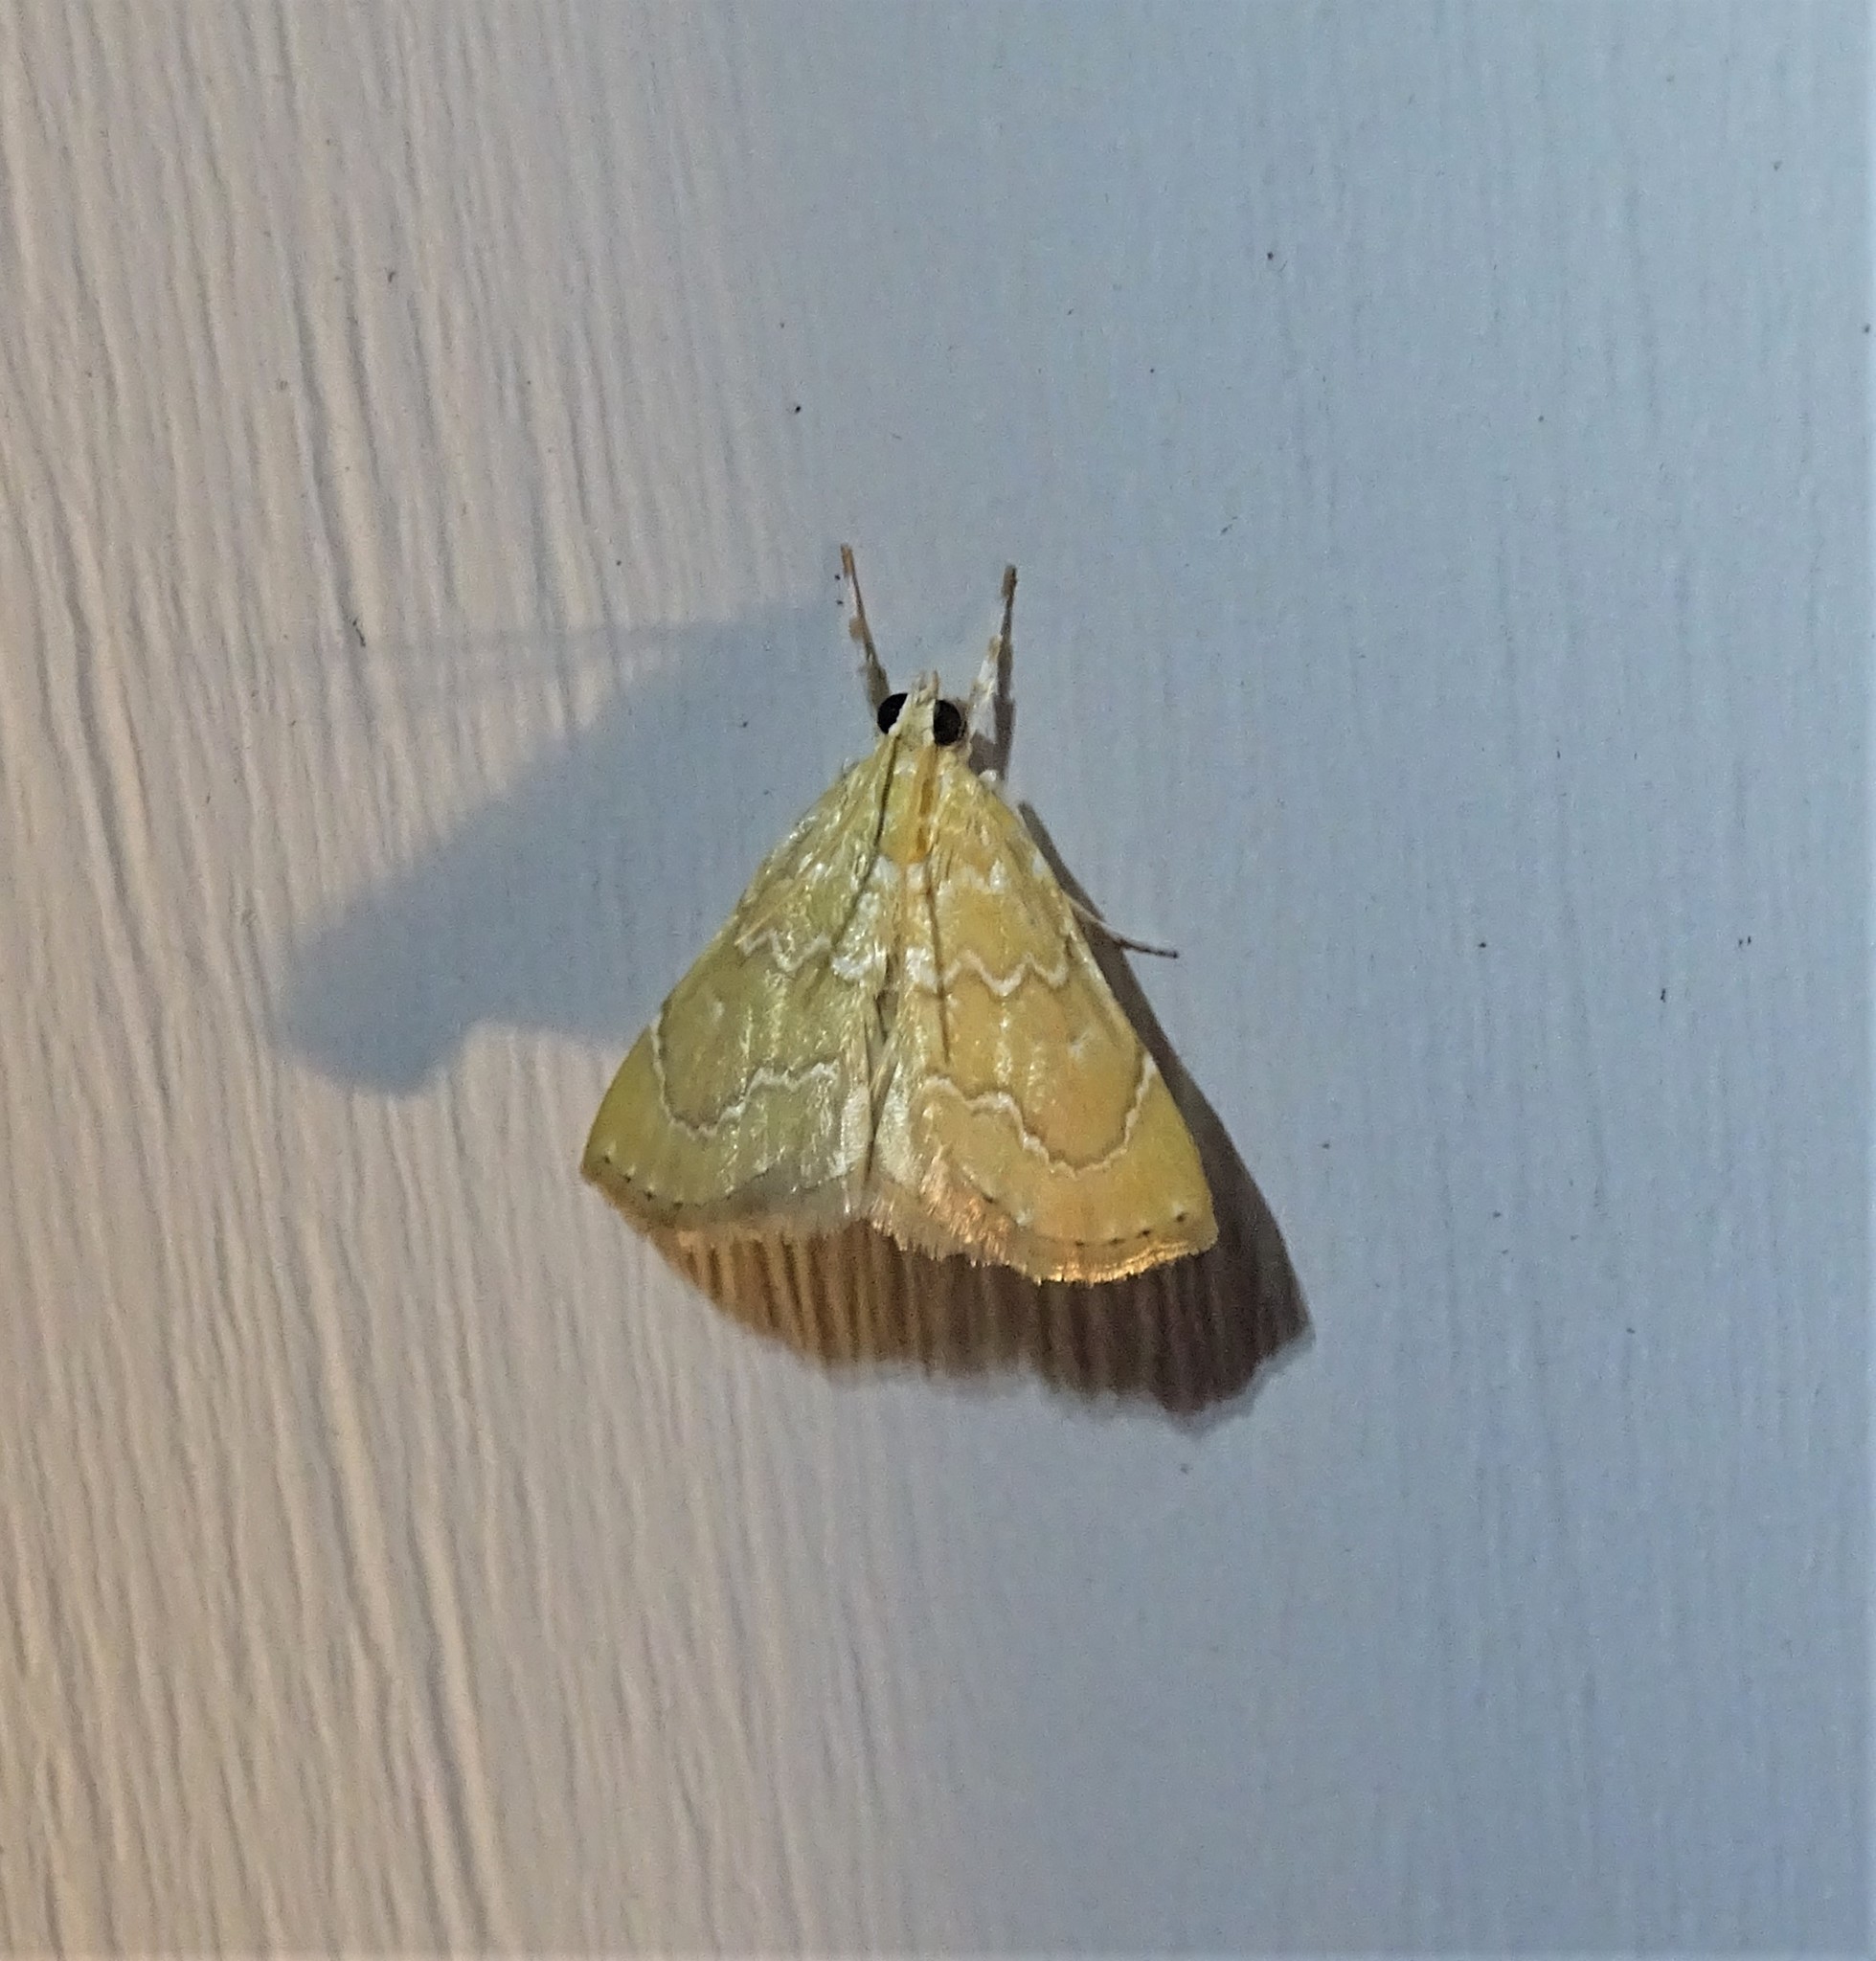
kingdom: Animalia
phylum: Arthropoda
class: Insecta
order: Lepidoptera
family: Crambidae
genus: Glaphyria
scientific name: Glaphyria sesquistrialis
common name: White-roped glaphyria
